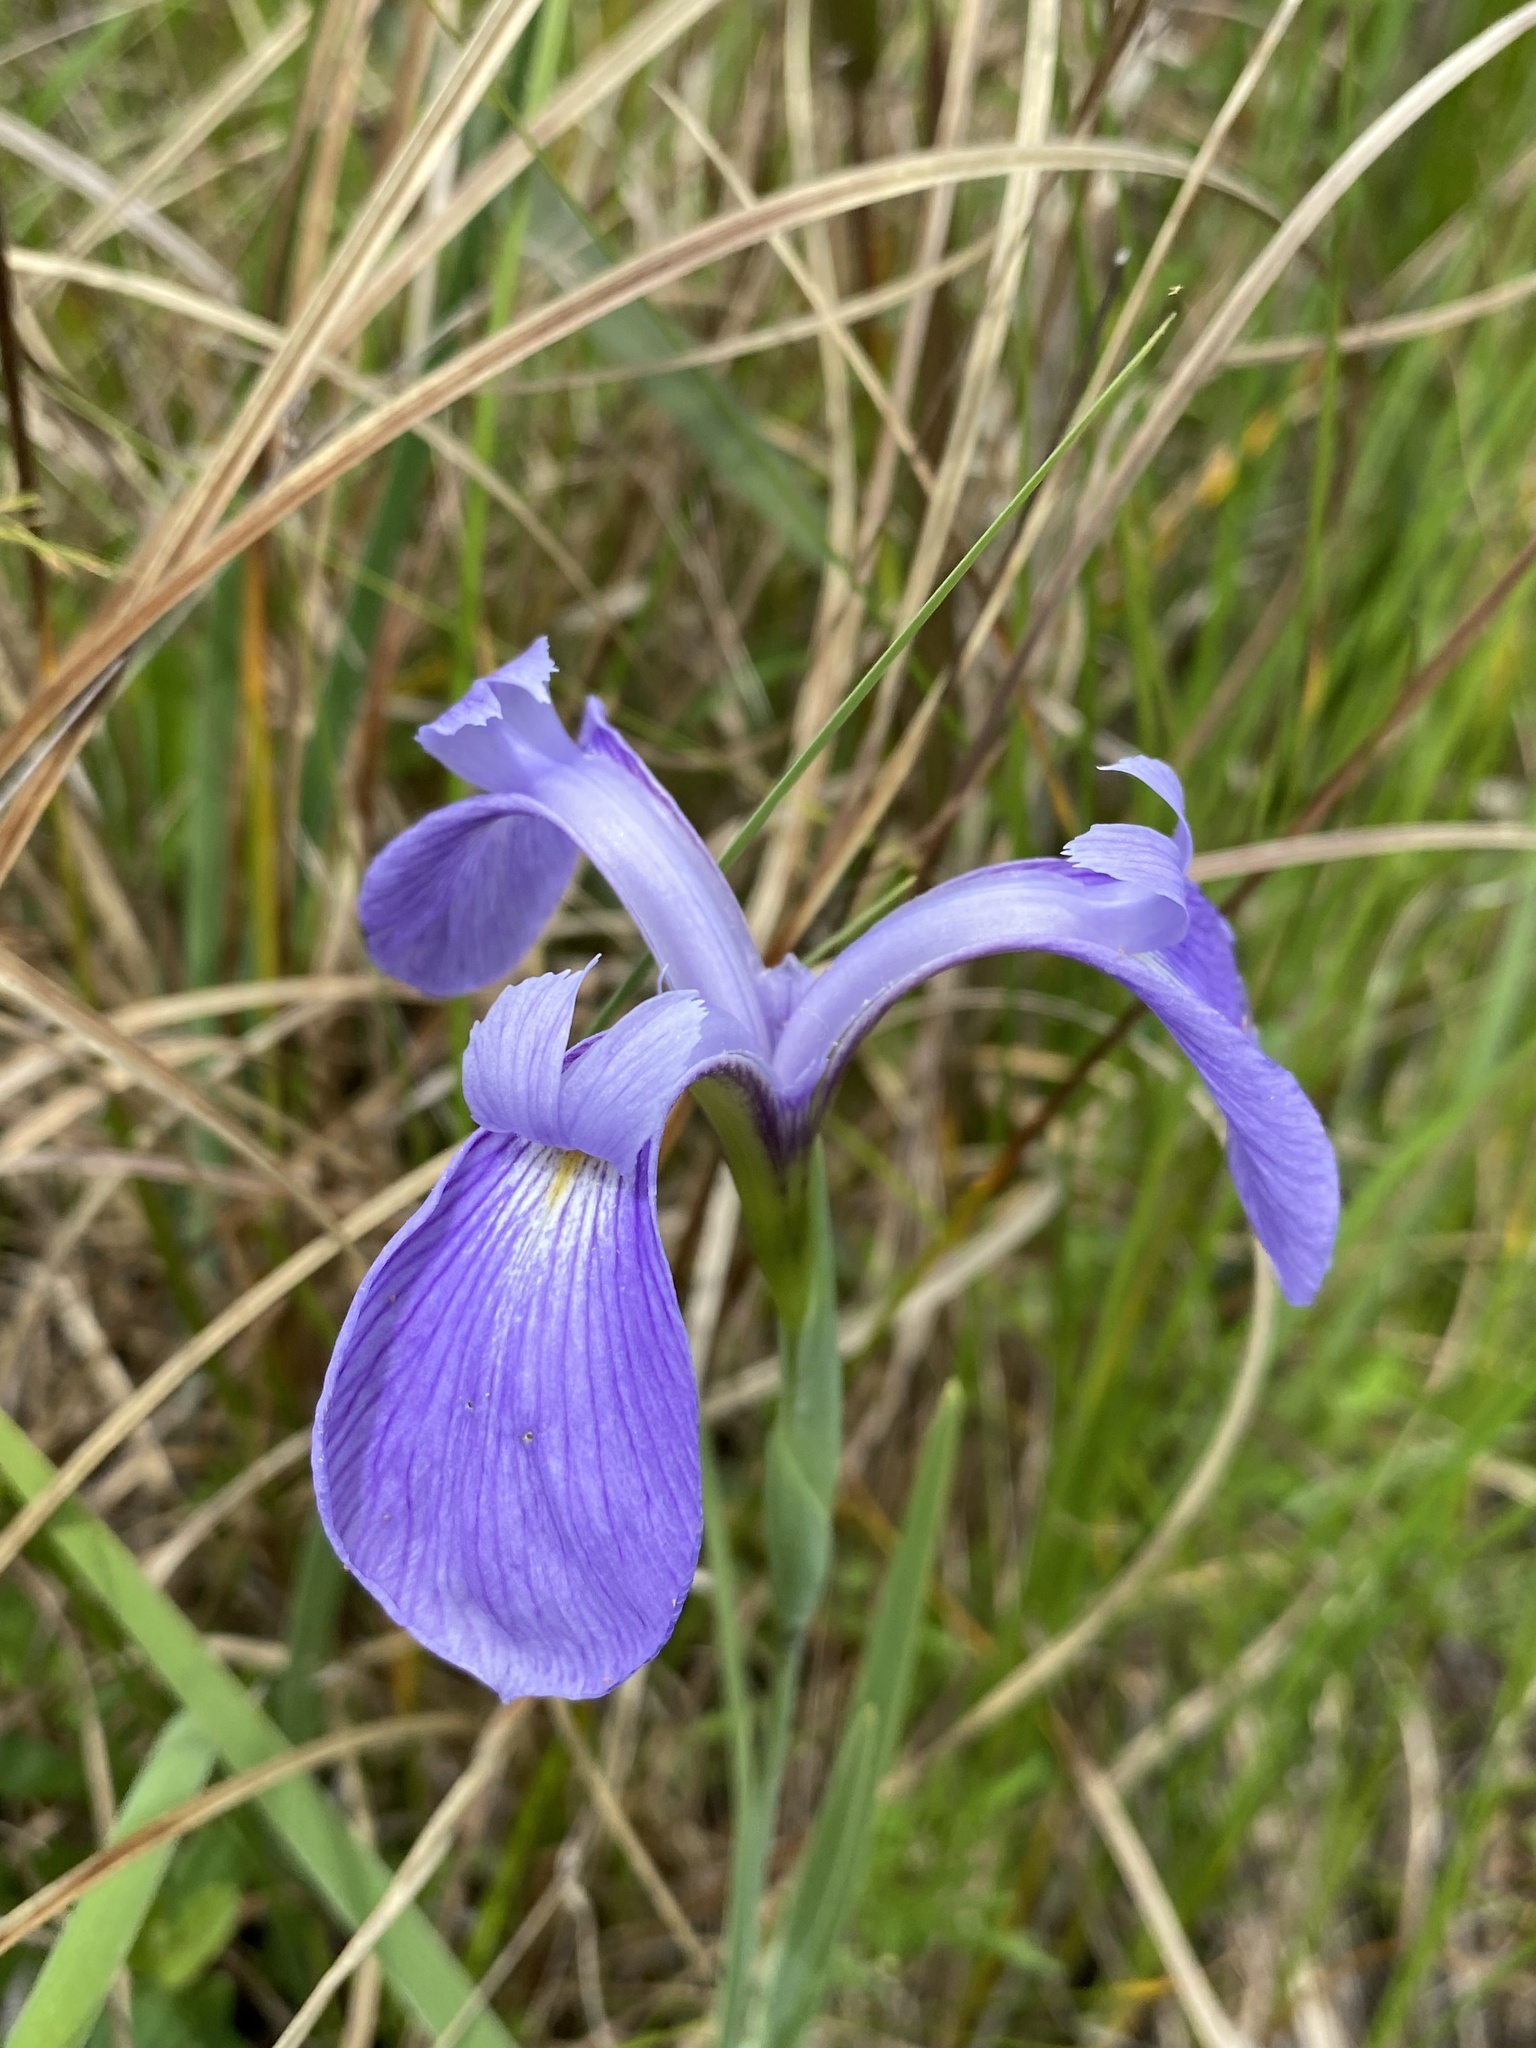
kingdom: Plantae
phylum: Tracheophyta
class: Liliopsida
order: Asparagales
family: Iridaceae
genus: Iris
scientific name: Iris tridentata
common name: Savannah iris
